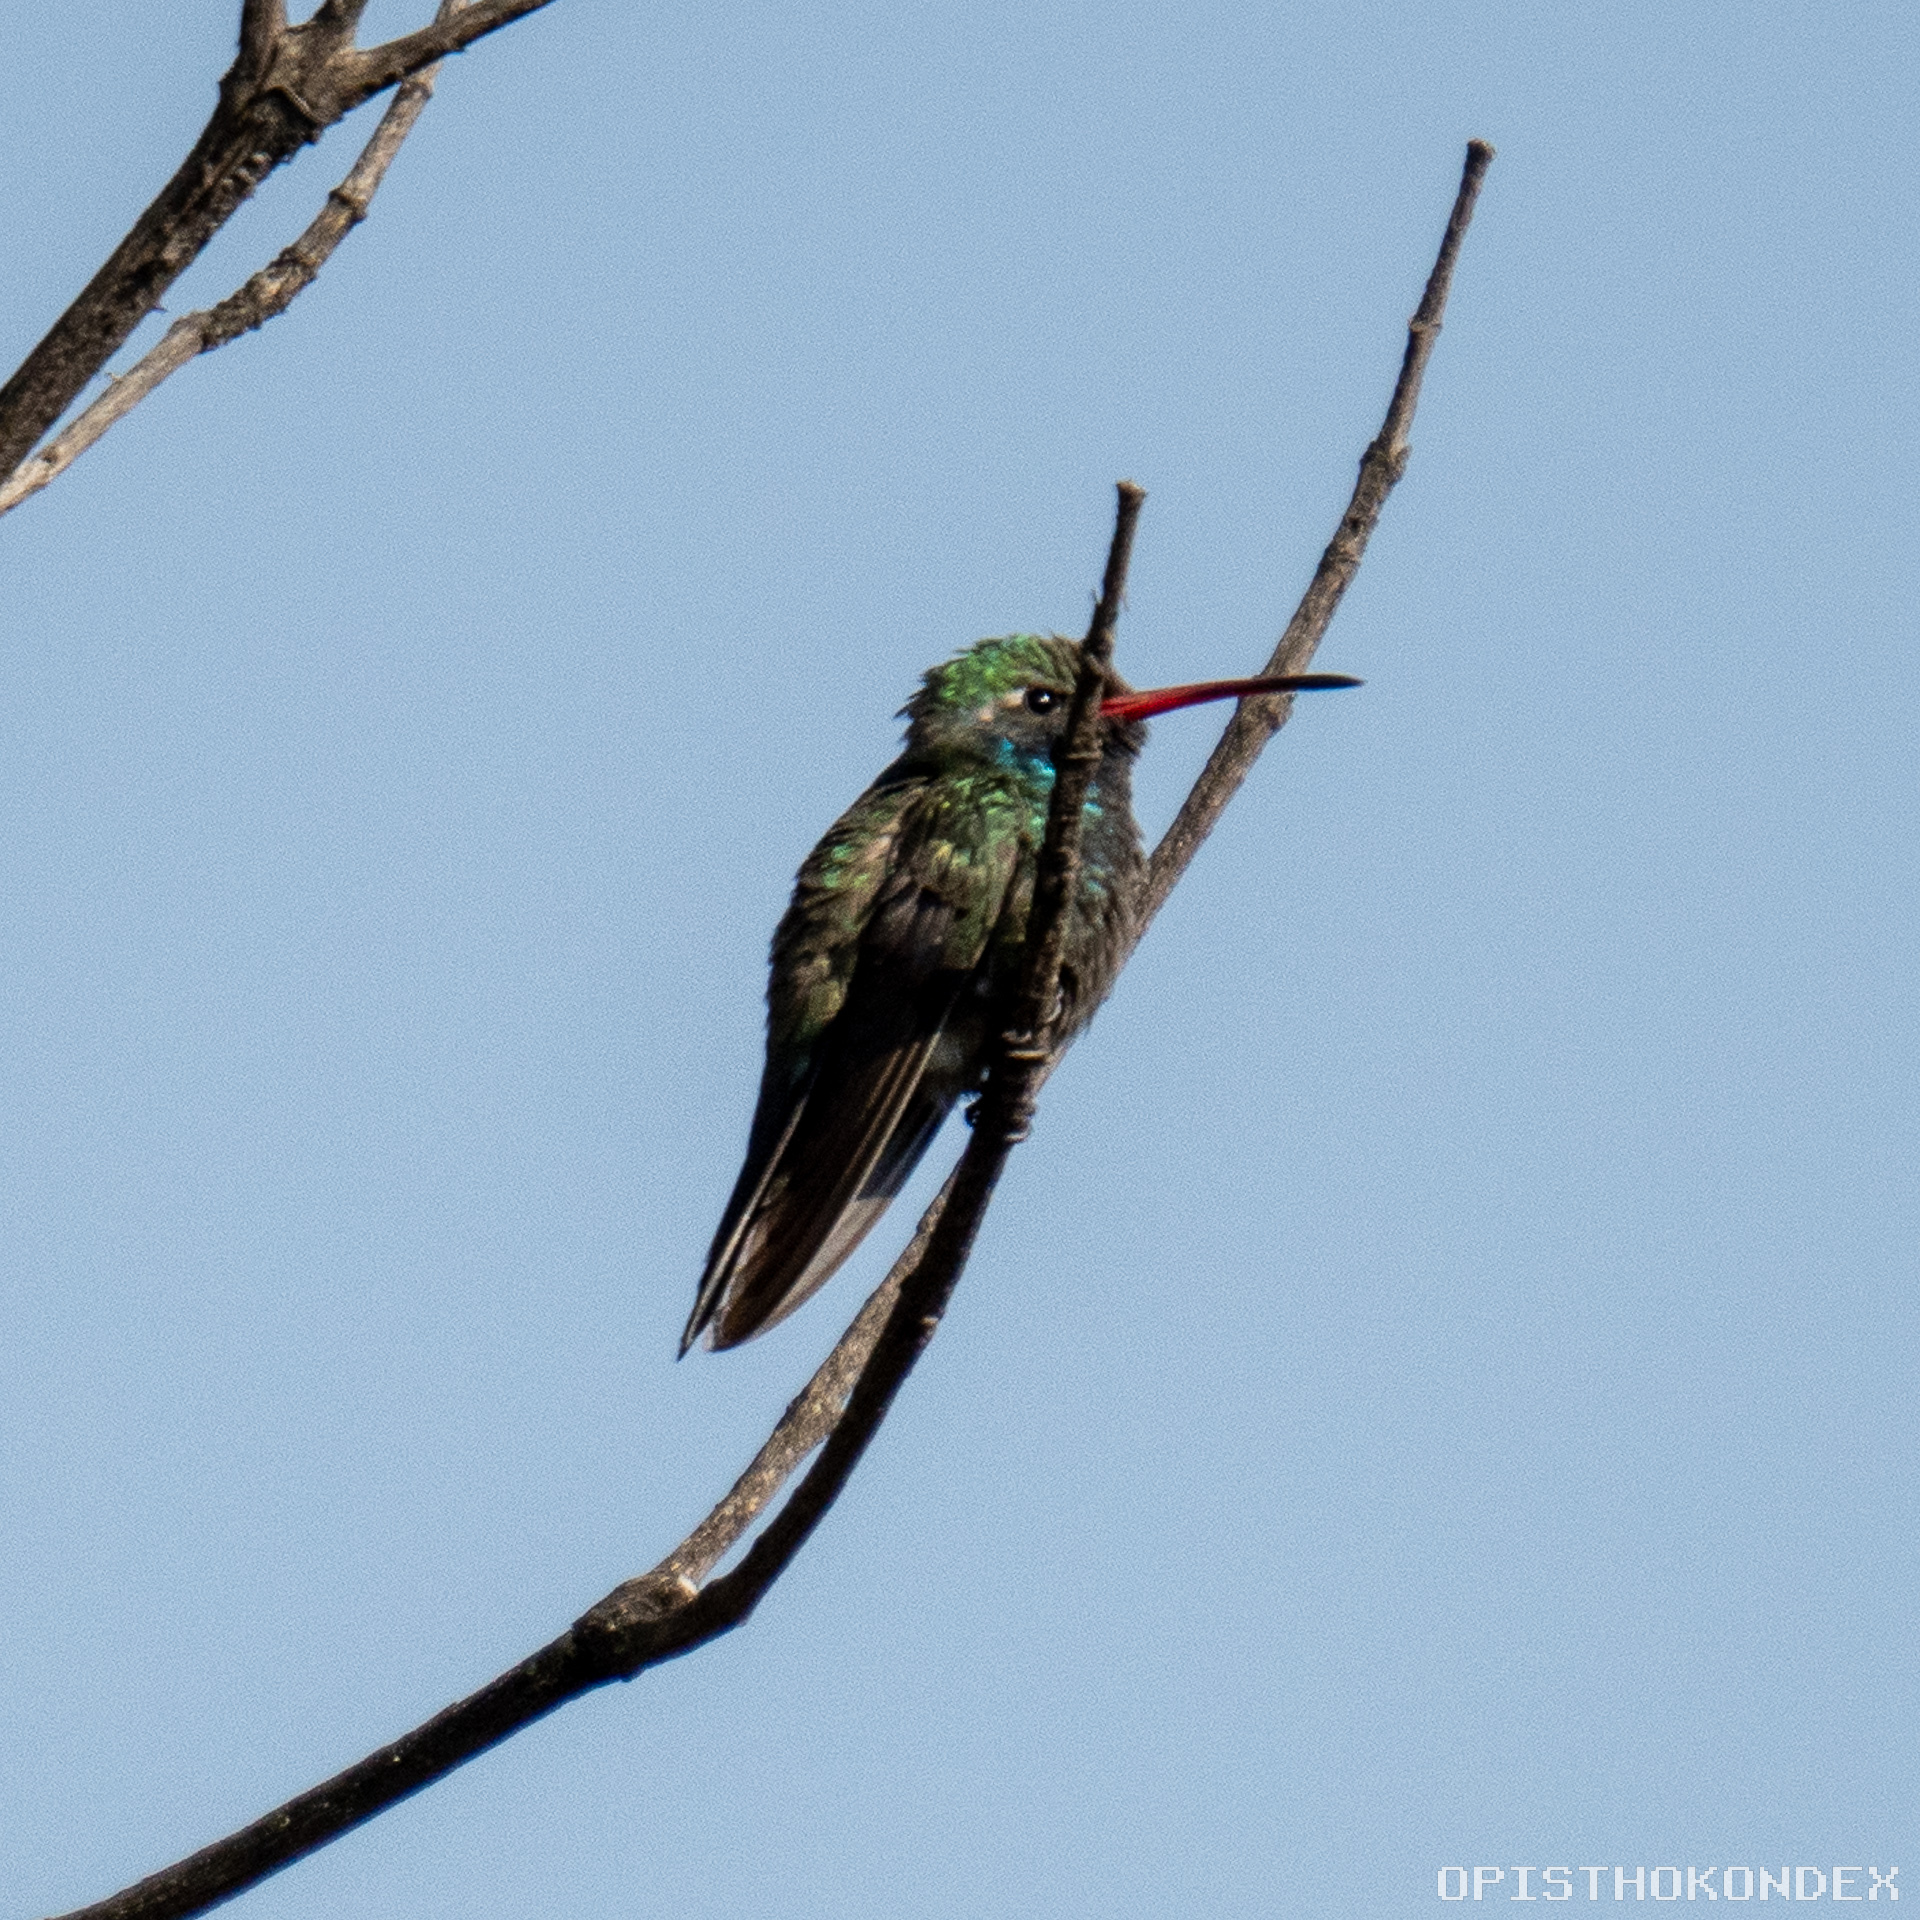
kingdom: Animalia
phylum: Chordata
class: Aves
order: Apodiformes
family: Trochilidae
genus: Cynanthus
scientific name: Cynanthus latirostris
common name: Broad-billed hummingbird
